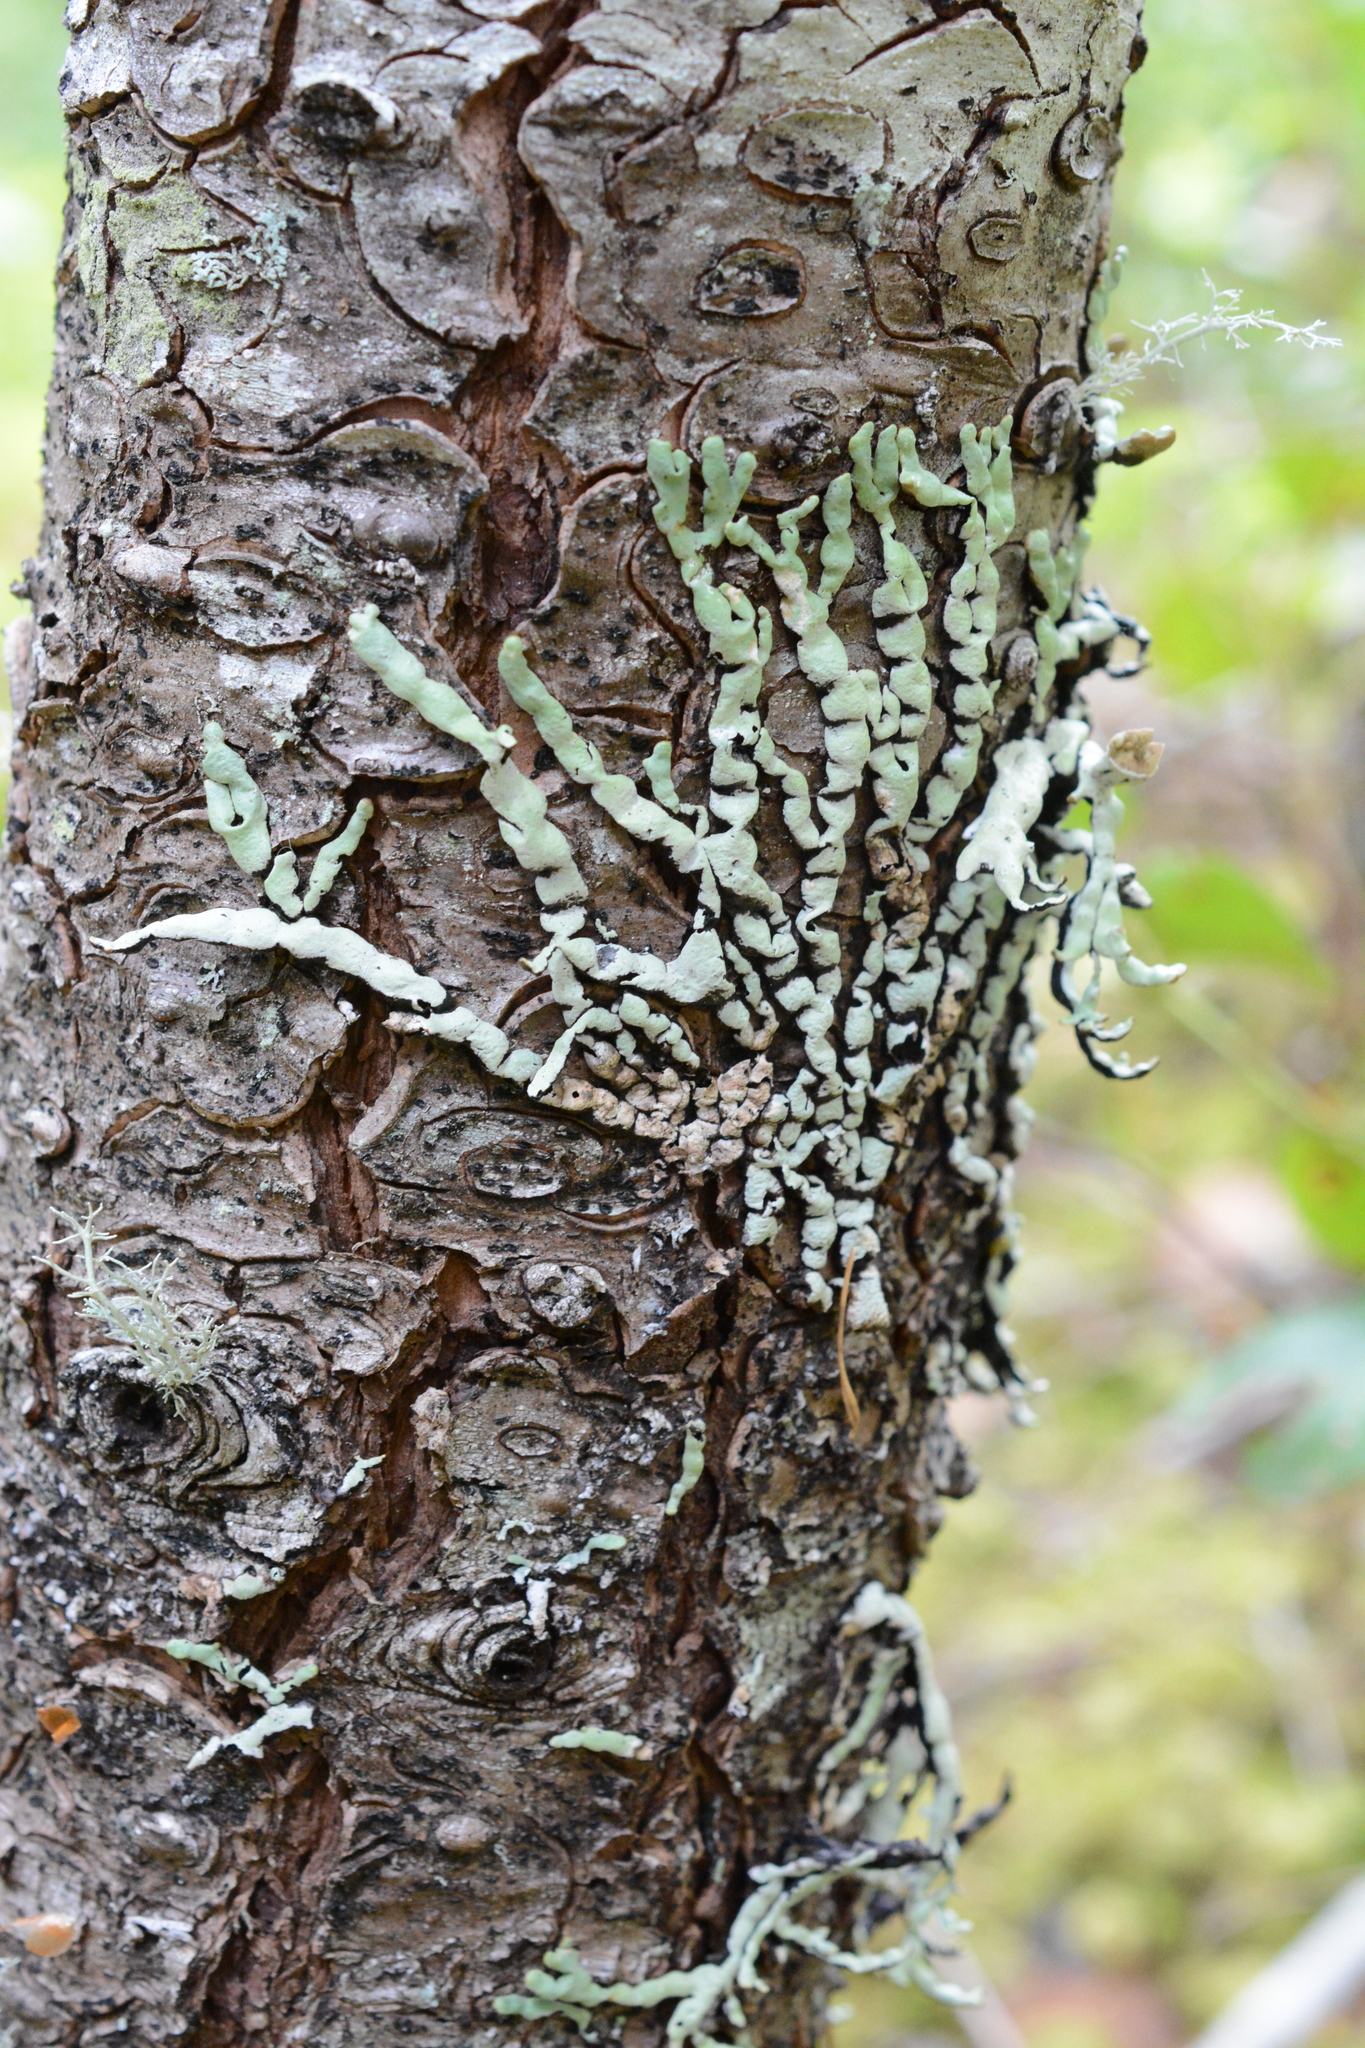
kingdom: Fungi
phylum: Ascomycota
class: Lecanoromycetes
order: Lecanorales
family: Parmeliaceae
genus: Hypogymnia
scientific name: Hypogymnia apinnata
